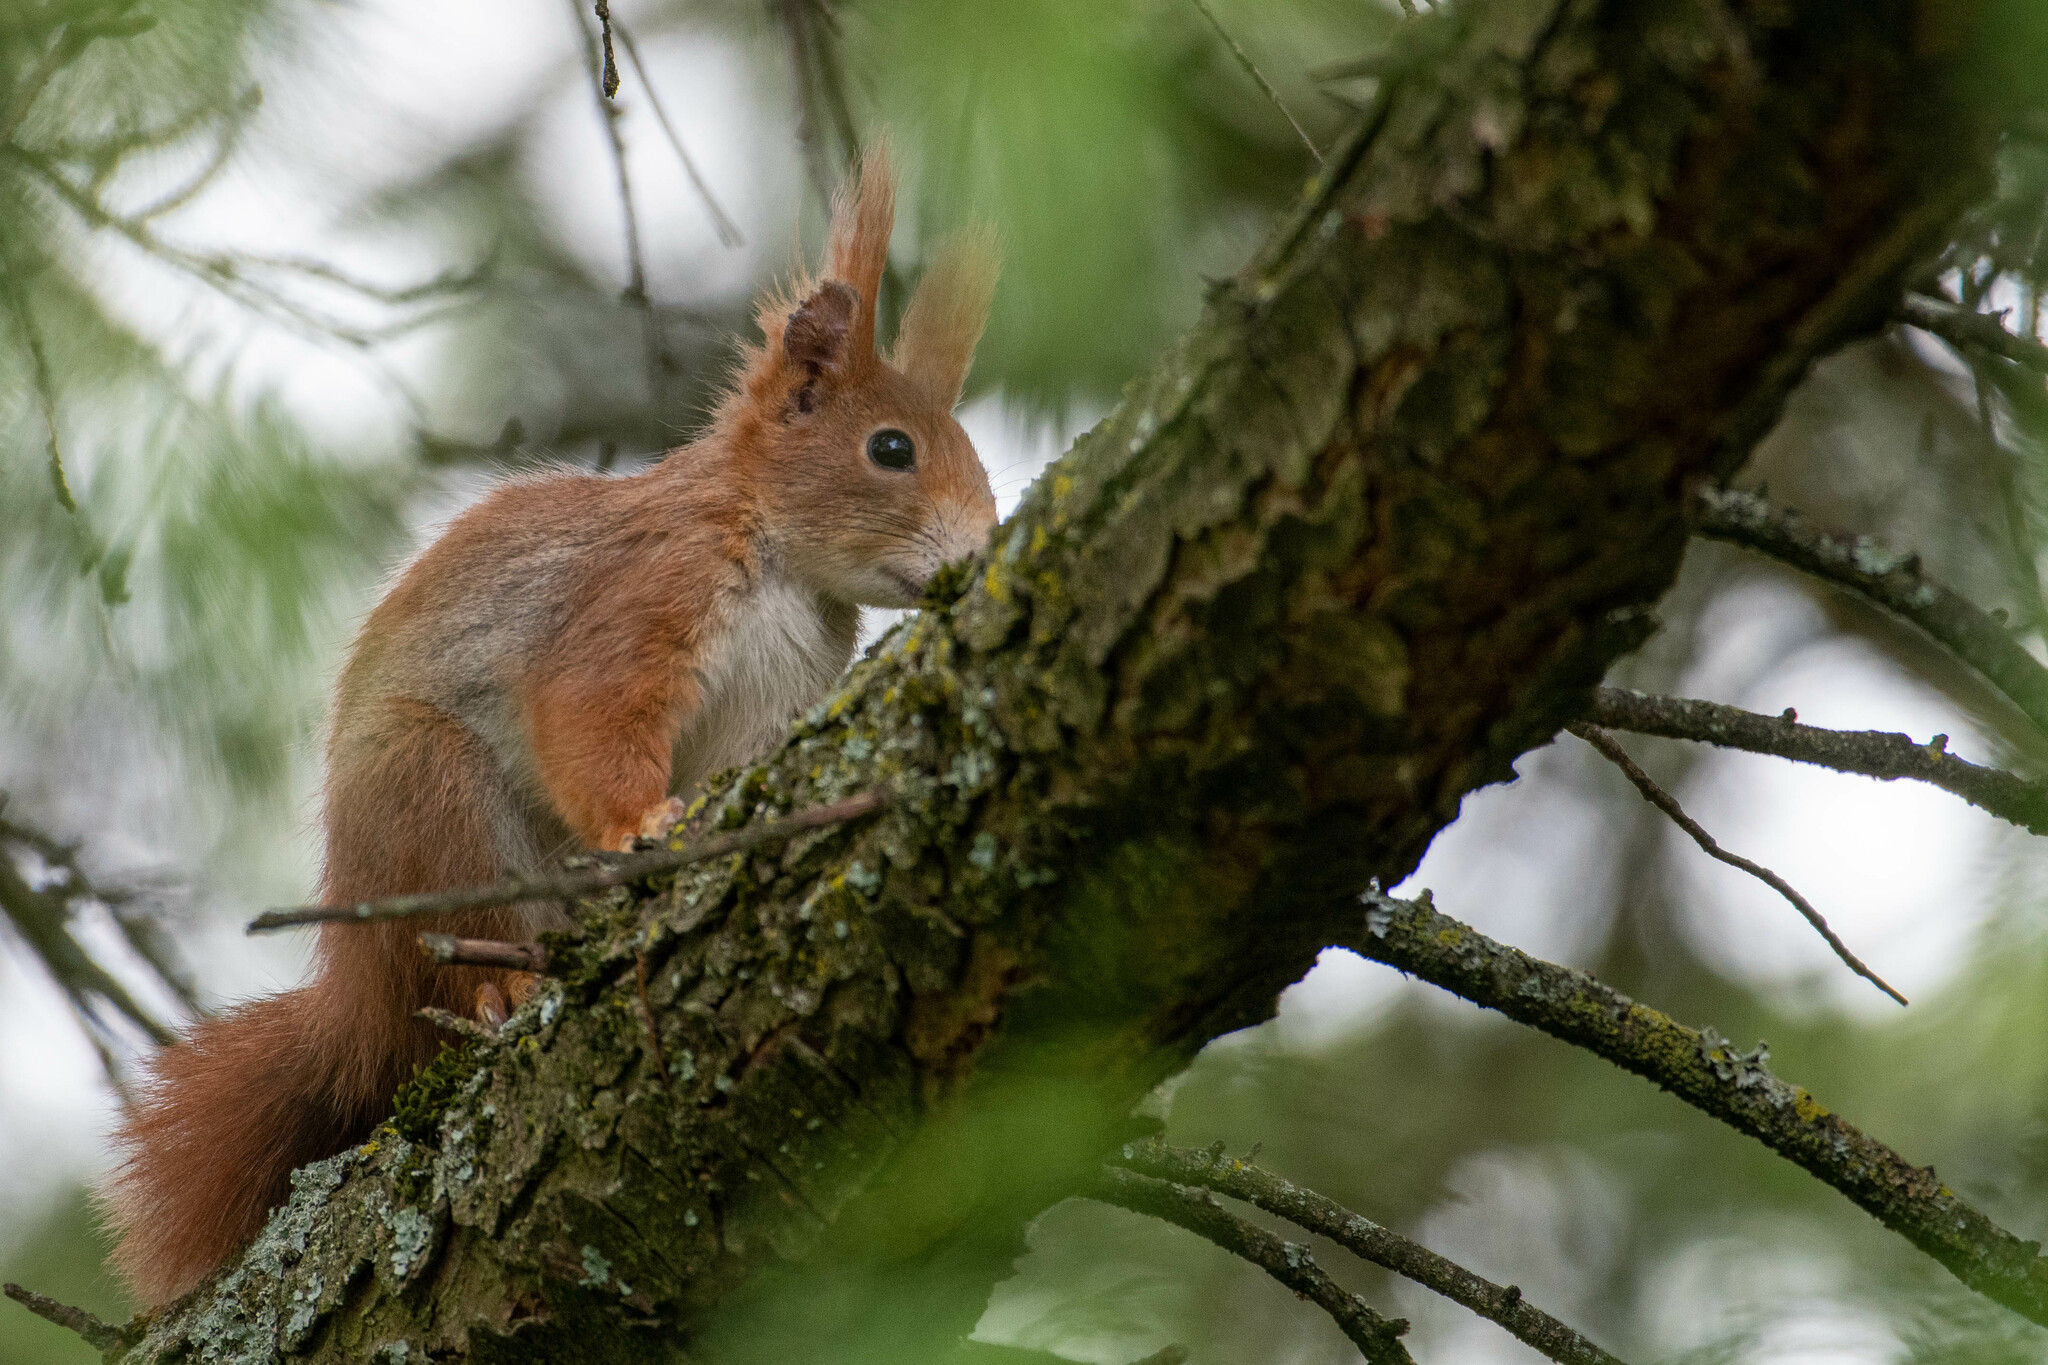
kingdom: Animalia
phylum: Chordata
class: Mammalia
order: Rodentia
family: Sciuridae
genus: Sciurus
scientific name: Sciurus vulgaris
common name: Eurasian red squirrel
